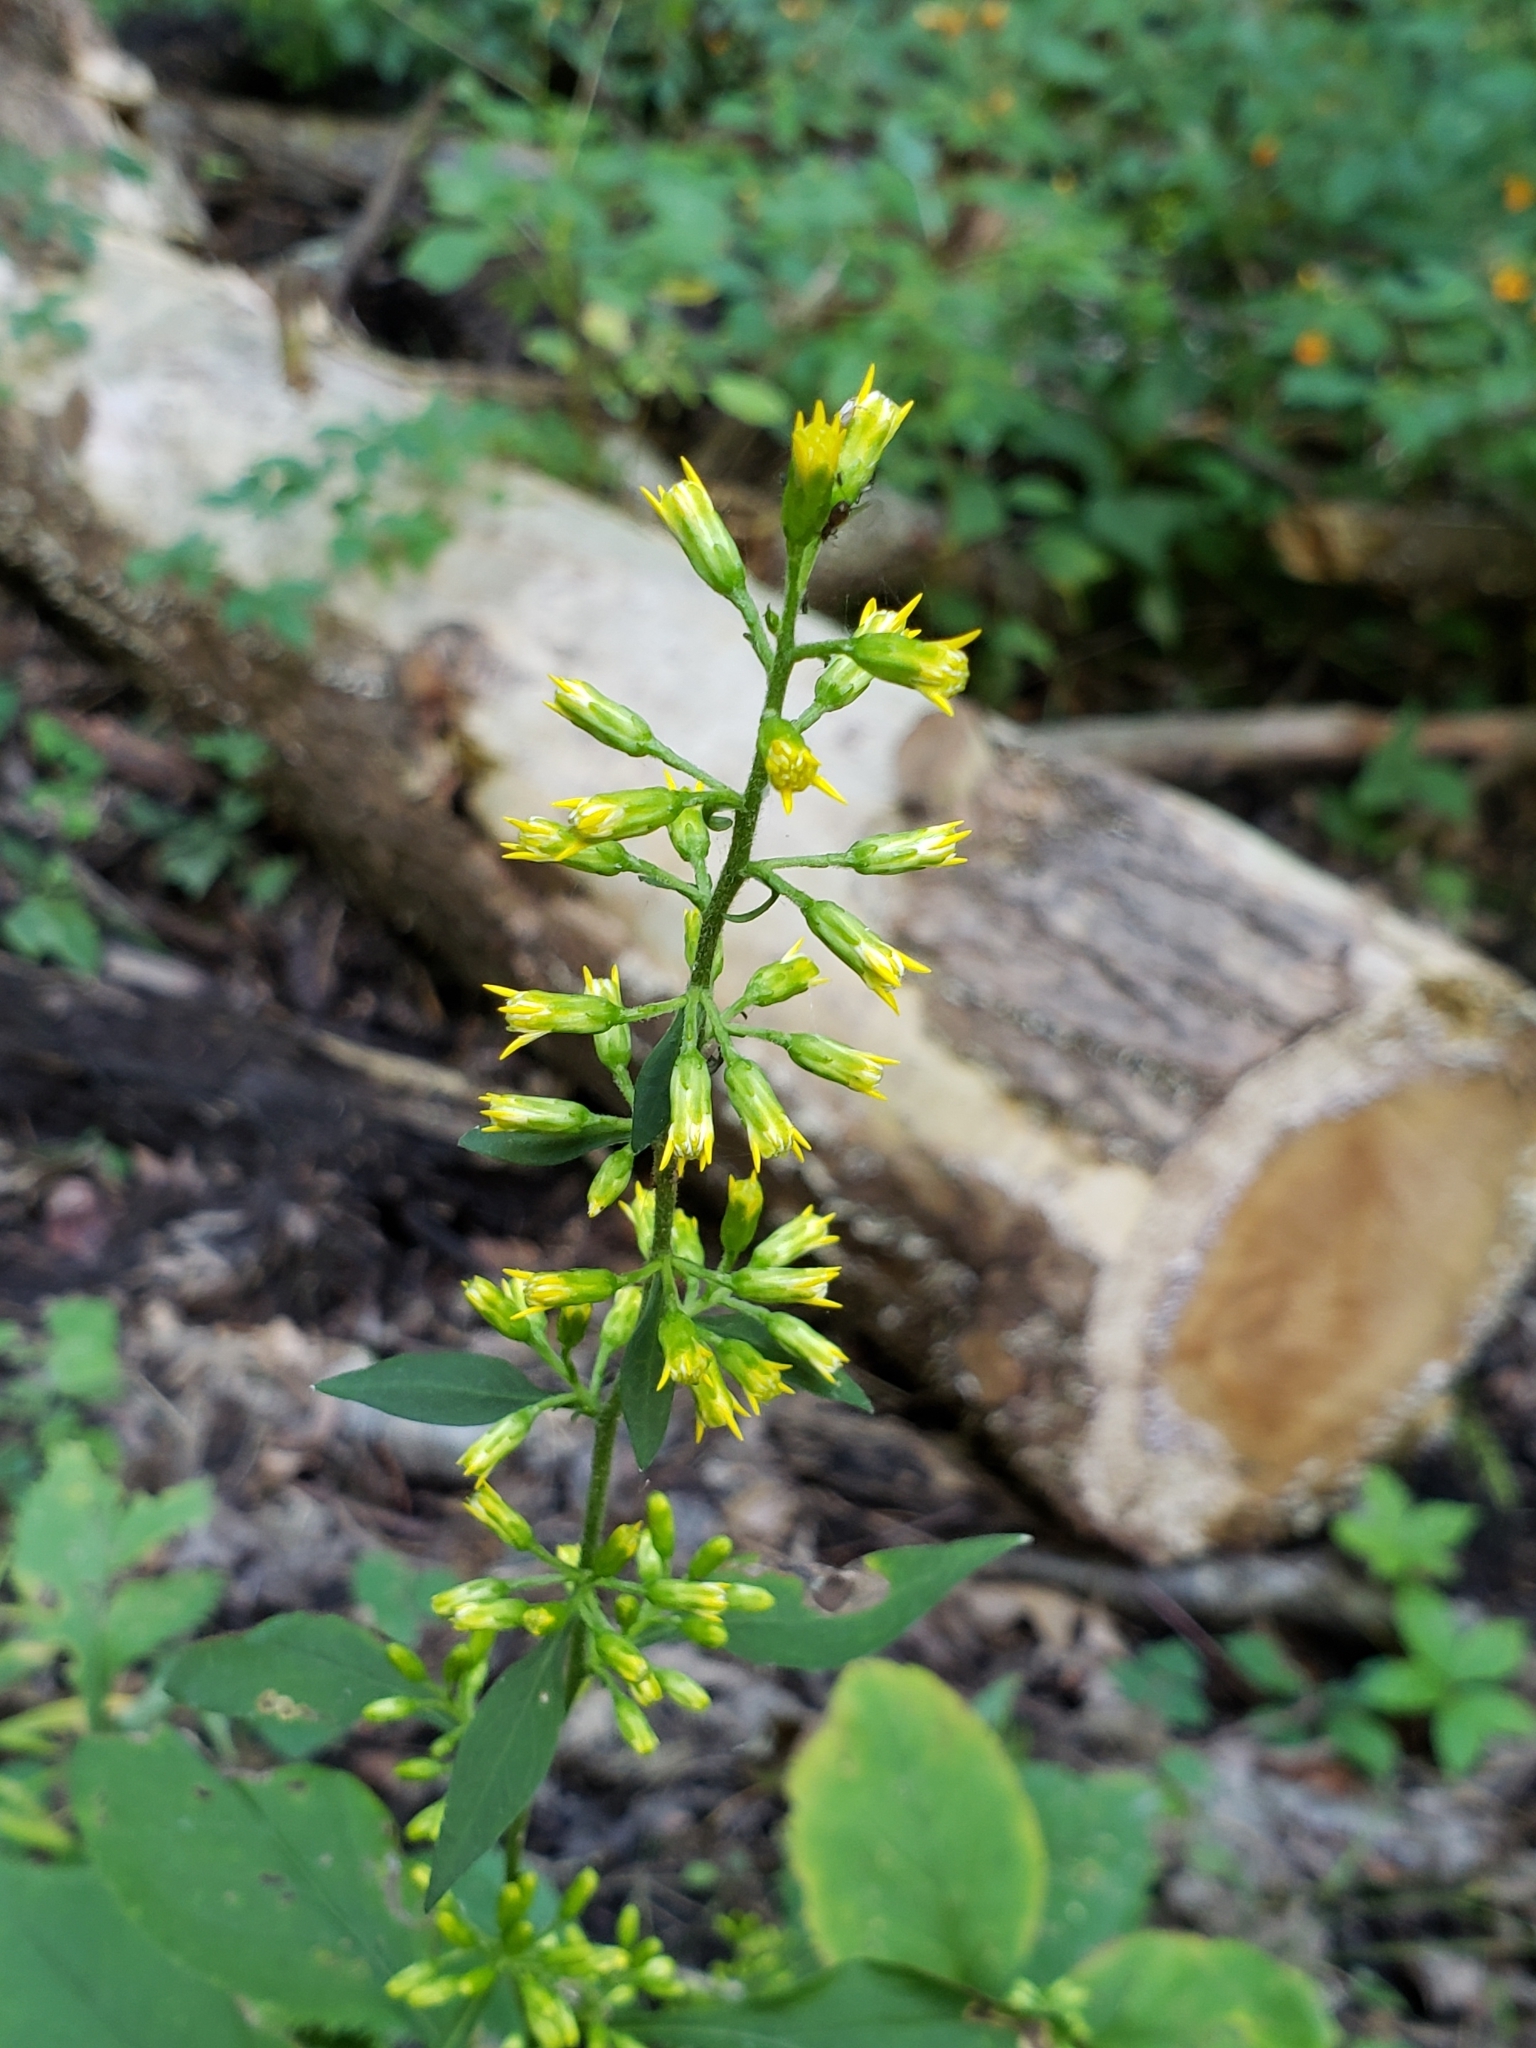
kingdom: Plantae
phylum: Tracheophyta
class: Magnoliopsida
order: Asterales
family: Asteraceae
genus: Solidago
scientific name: Solidago flexicaulis
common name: Zig-zag goldenrod
